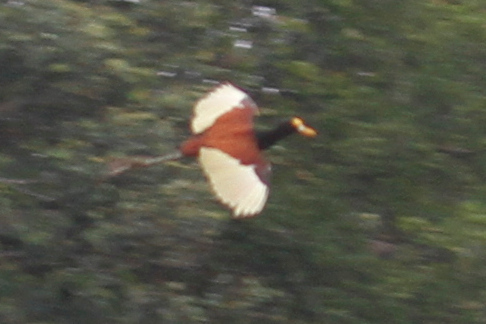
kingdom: Animalia
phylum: Chordata
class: Aves
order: Charadriiformes
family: Jacanidae
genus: Jacana
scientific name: Jacana spinosa
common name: Northern jacana
